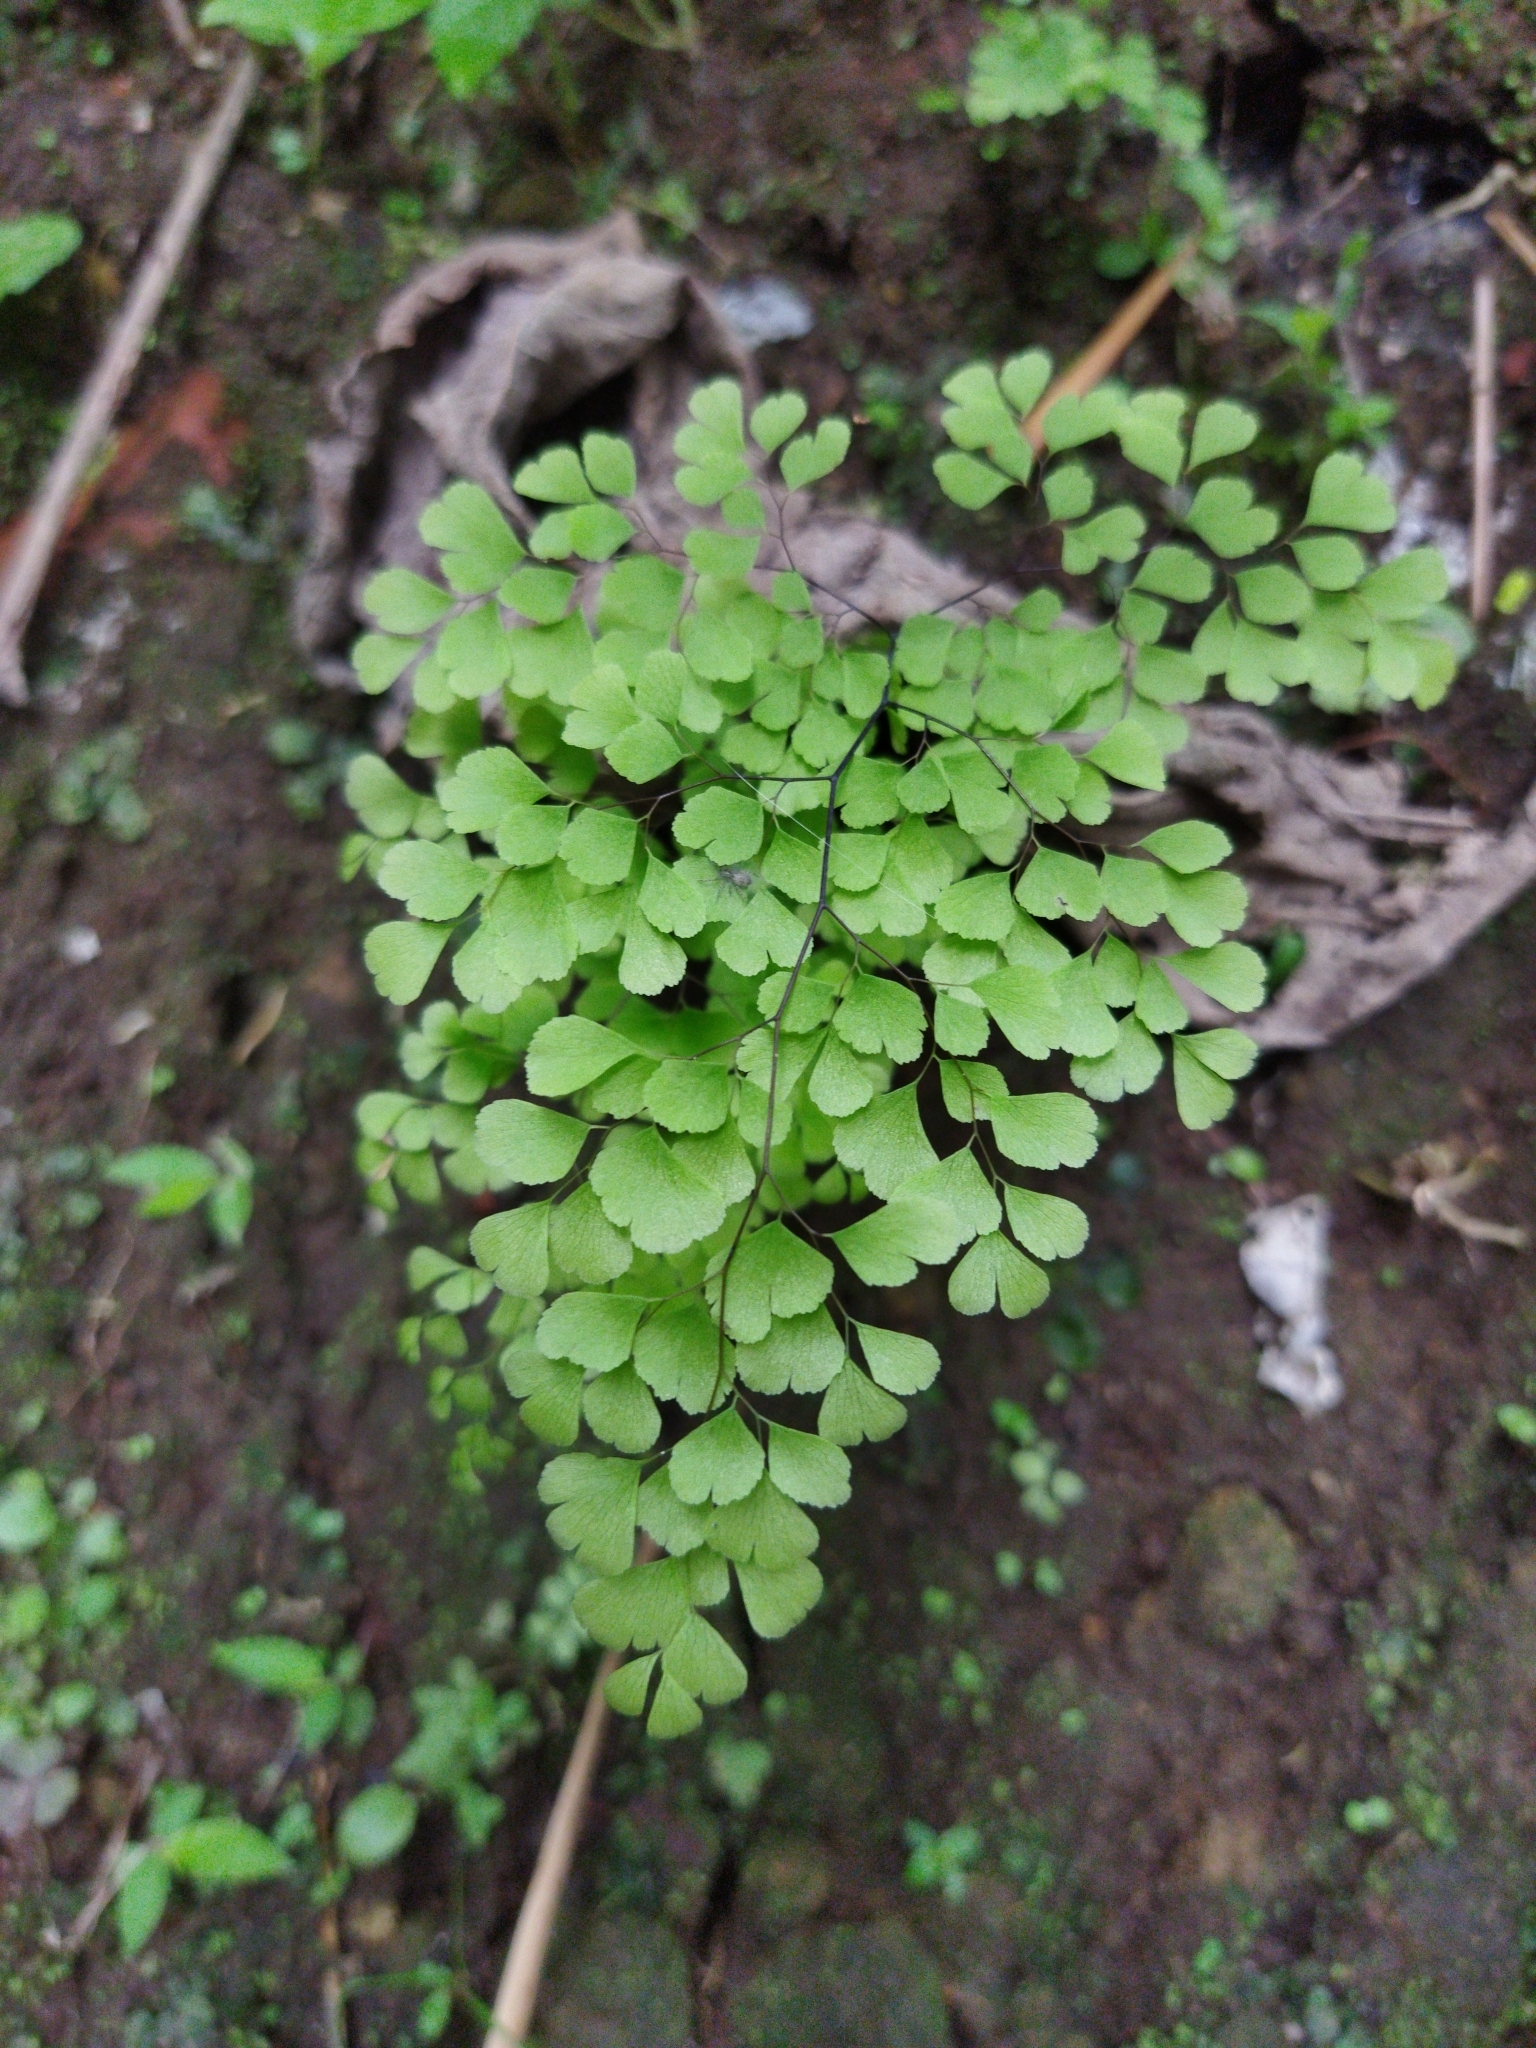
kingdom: Plantae
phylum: Tracheophyta
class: Polypodiopsida
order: Polypodiales
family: Pteridaceae
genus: Adiantum
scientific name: Adiantum raddianum
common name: Delta maidenhair fern
